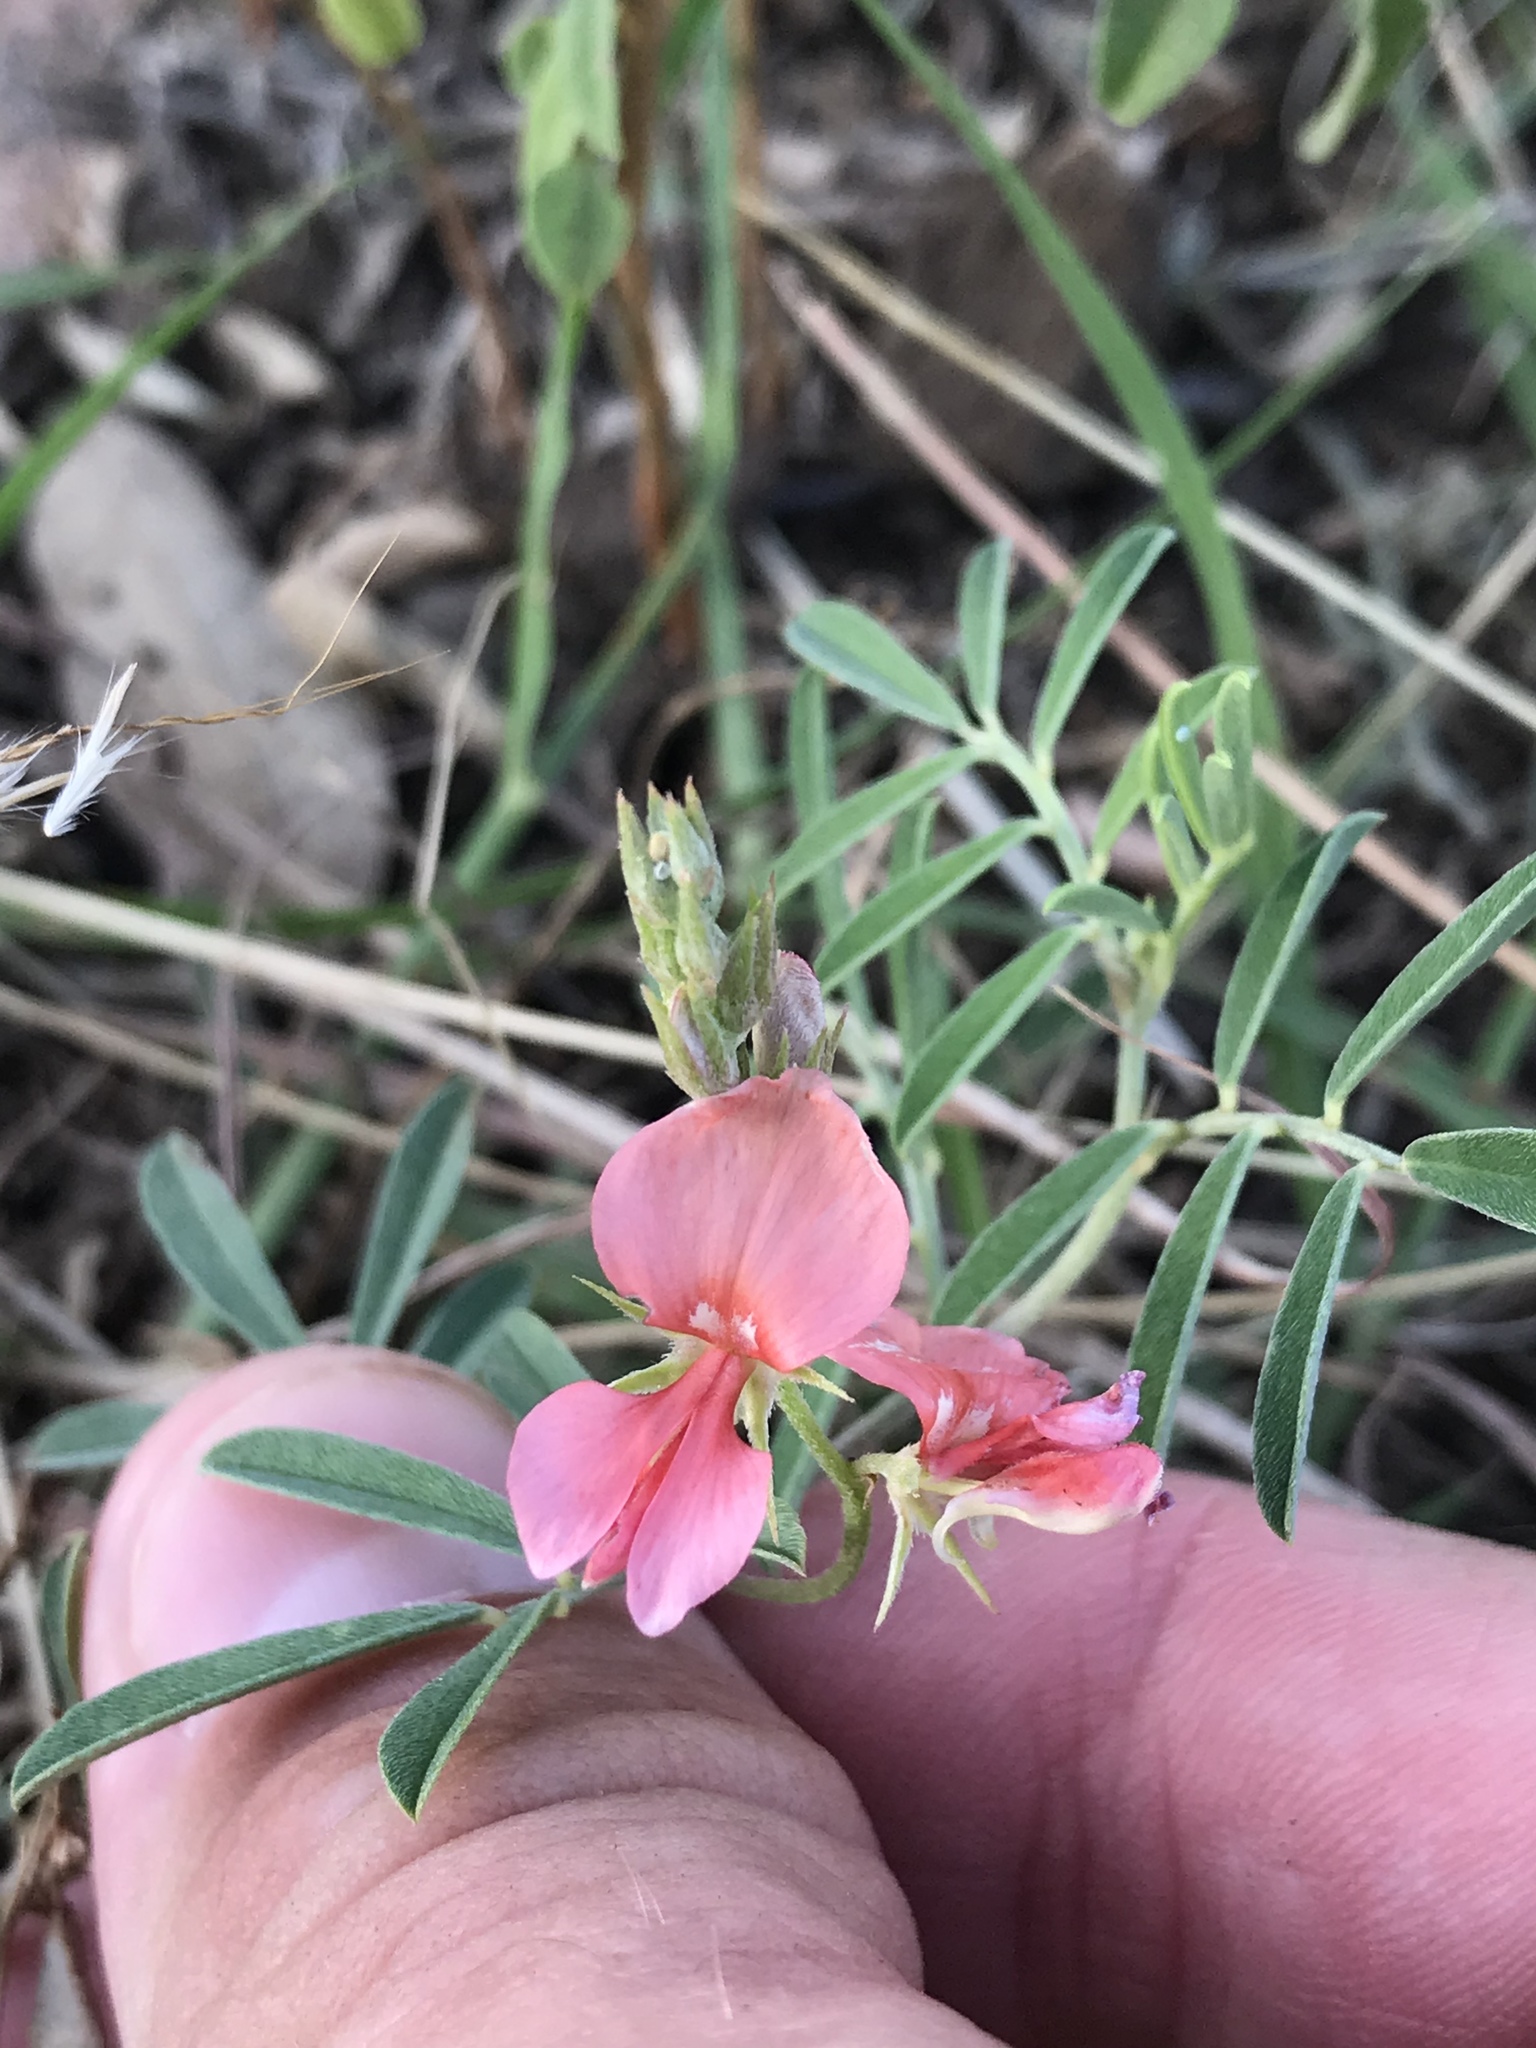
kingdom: Plantae
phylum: Tracheophyta
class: Magnoliopsida
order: Fabales
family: Fabaceae
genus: Indigofera
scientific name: Indigofera miniata
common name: Coast indigo
